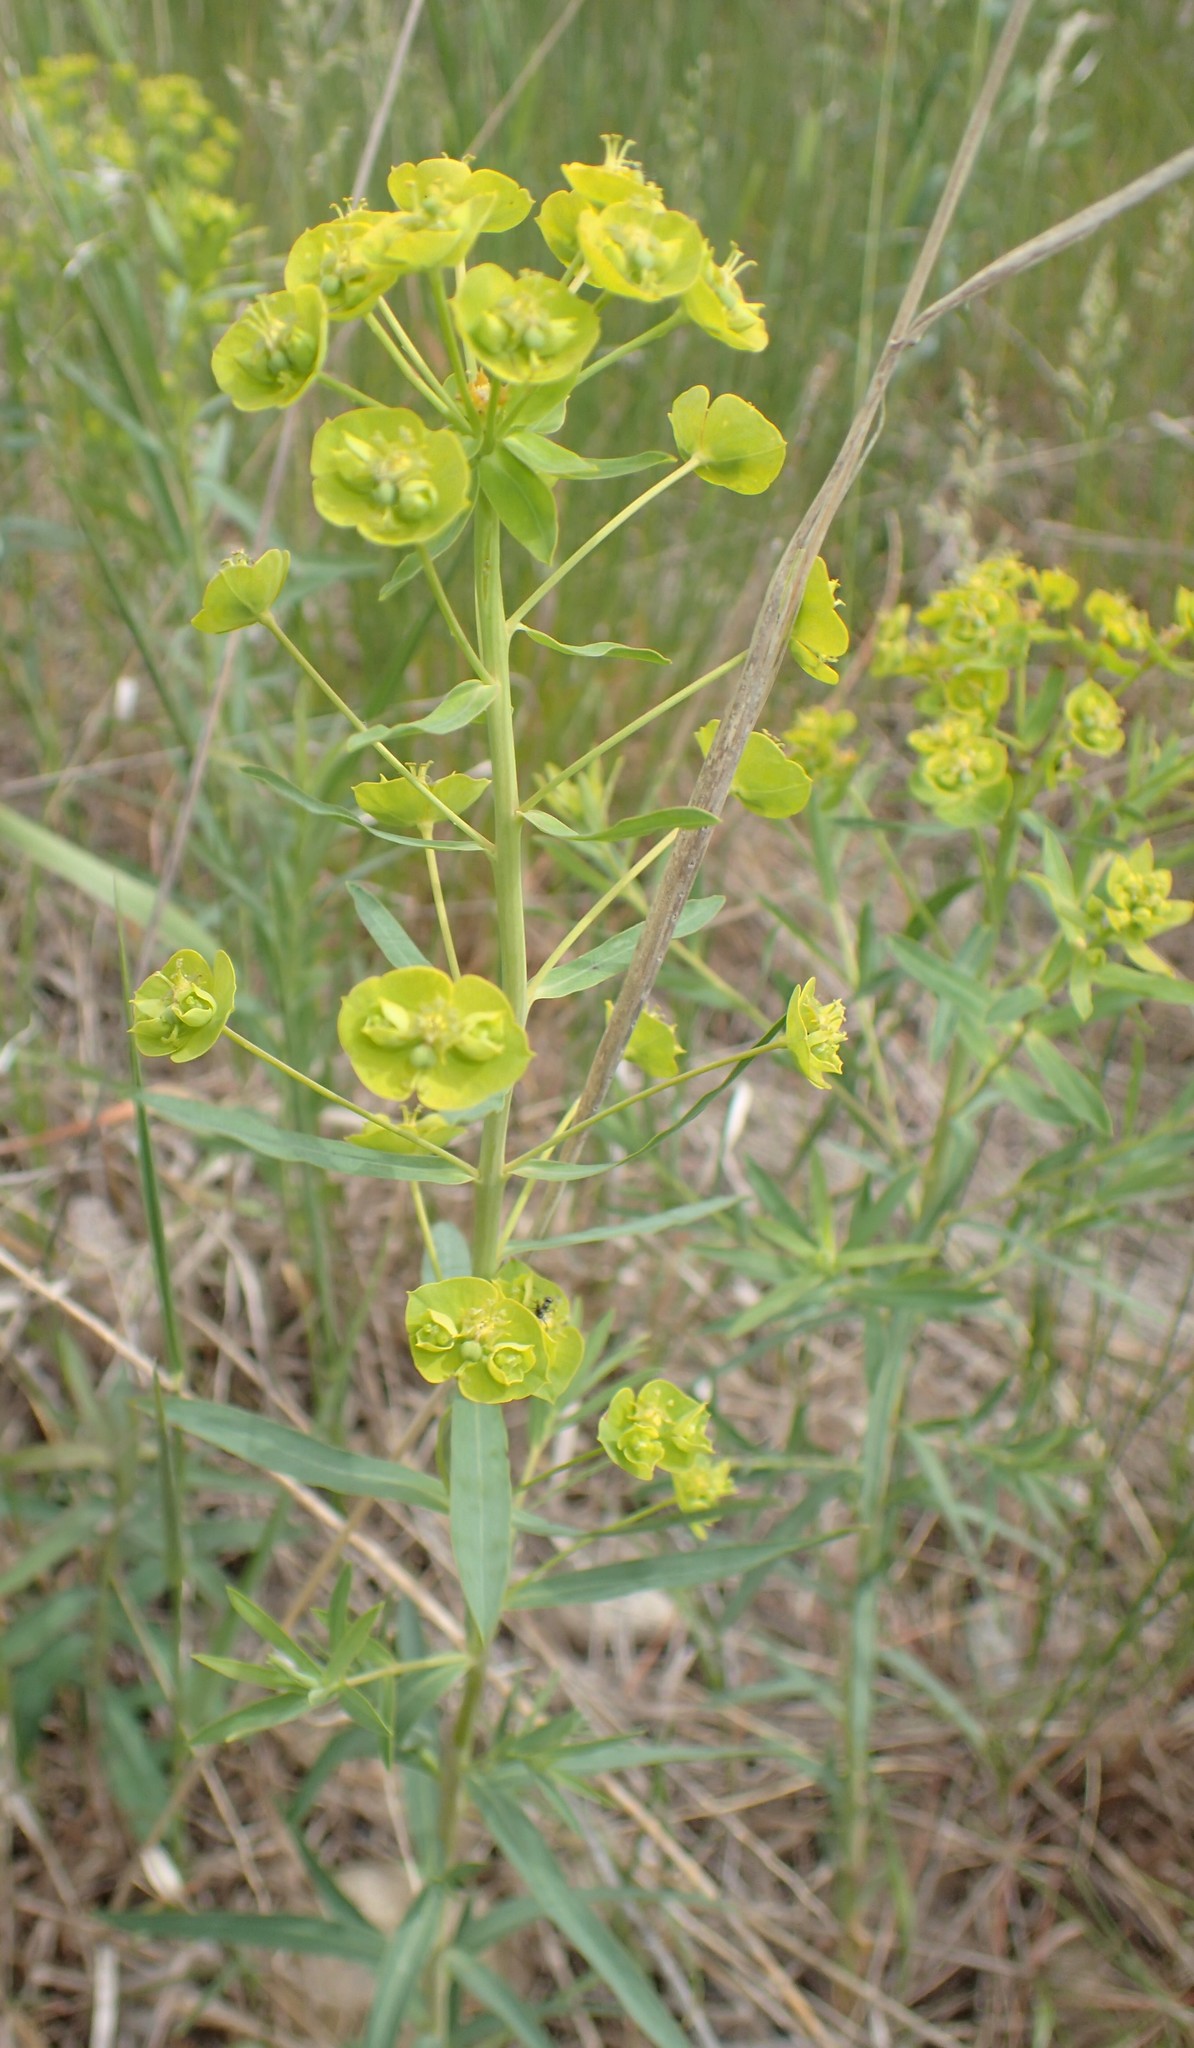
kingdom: Plantae
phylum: Tracheophyta
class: Magnoliopsida
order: Malpighiales
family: Euphorbiaceae
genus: Euphorbia
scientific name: Euphorbia virgata
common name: Leafy spurge
